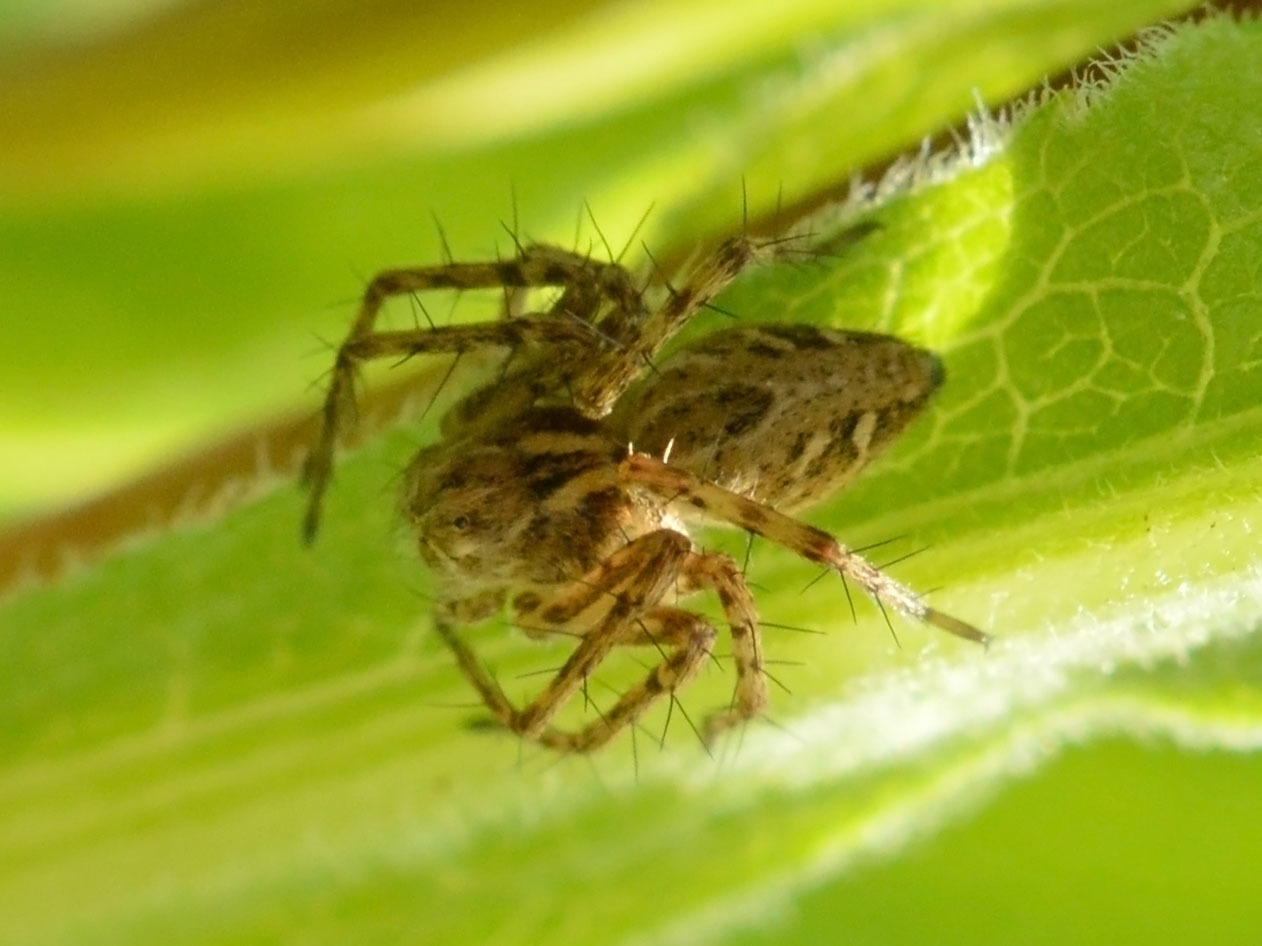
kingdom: Animalia
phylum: Arthropoda
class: Arachnida
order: Araneae
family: Oxyopidae
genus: Oxyopes
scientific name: Oxyopes heterophthalmus
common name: Lynx spider
